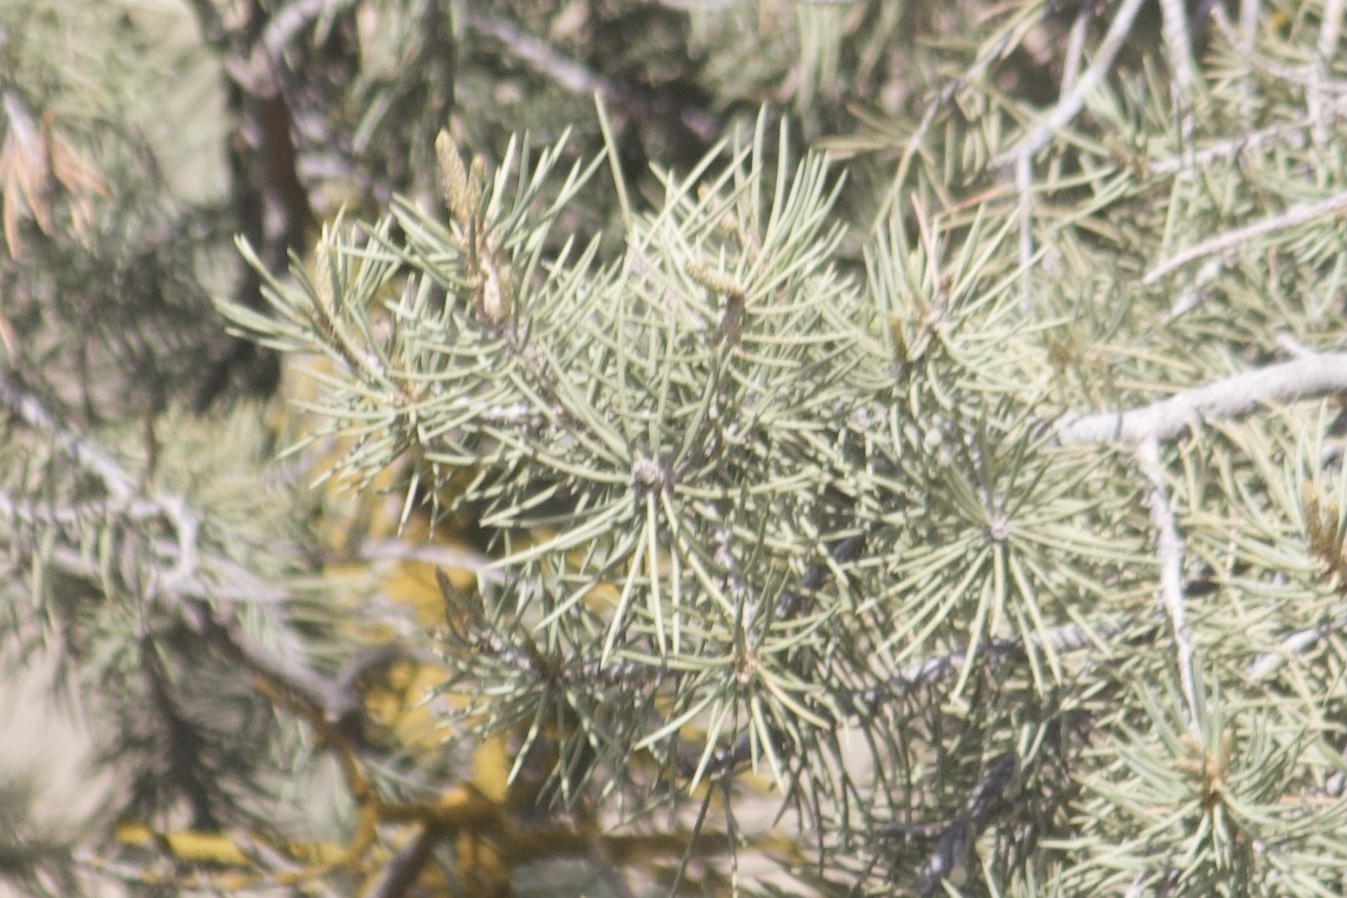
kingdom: Plantae
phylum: Tracheophyta
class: Pinopsida
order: Pinales
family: Pinaceae
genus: Pinus
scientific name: Pinus monophylla
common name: One-leaved nut pine
